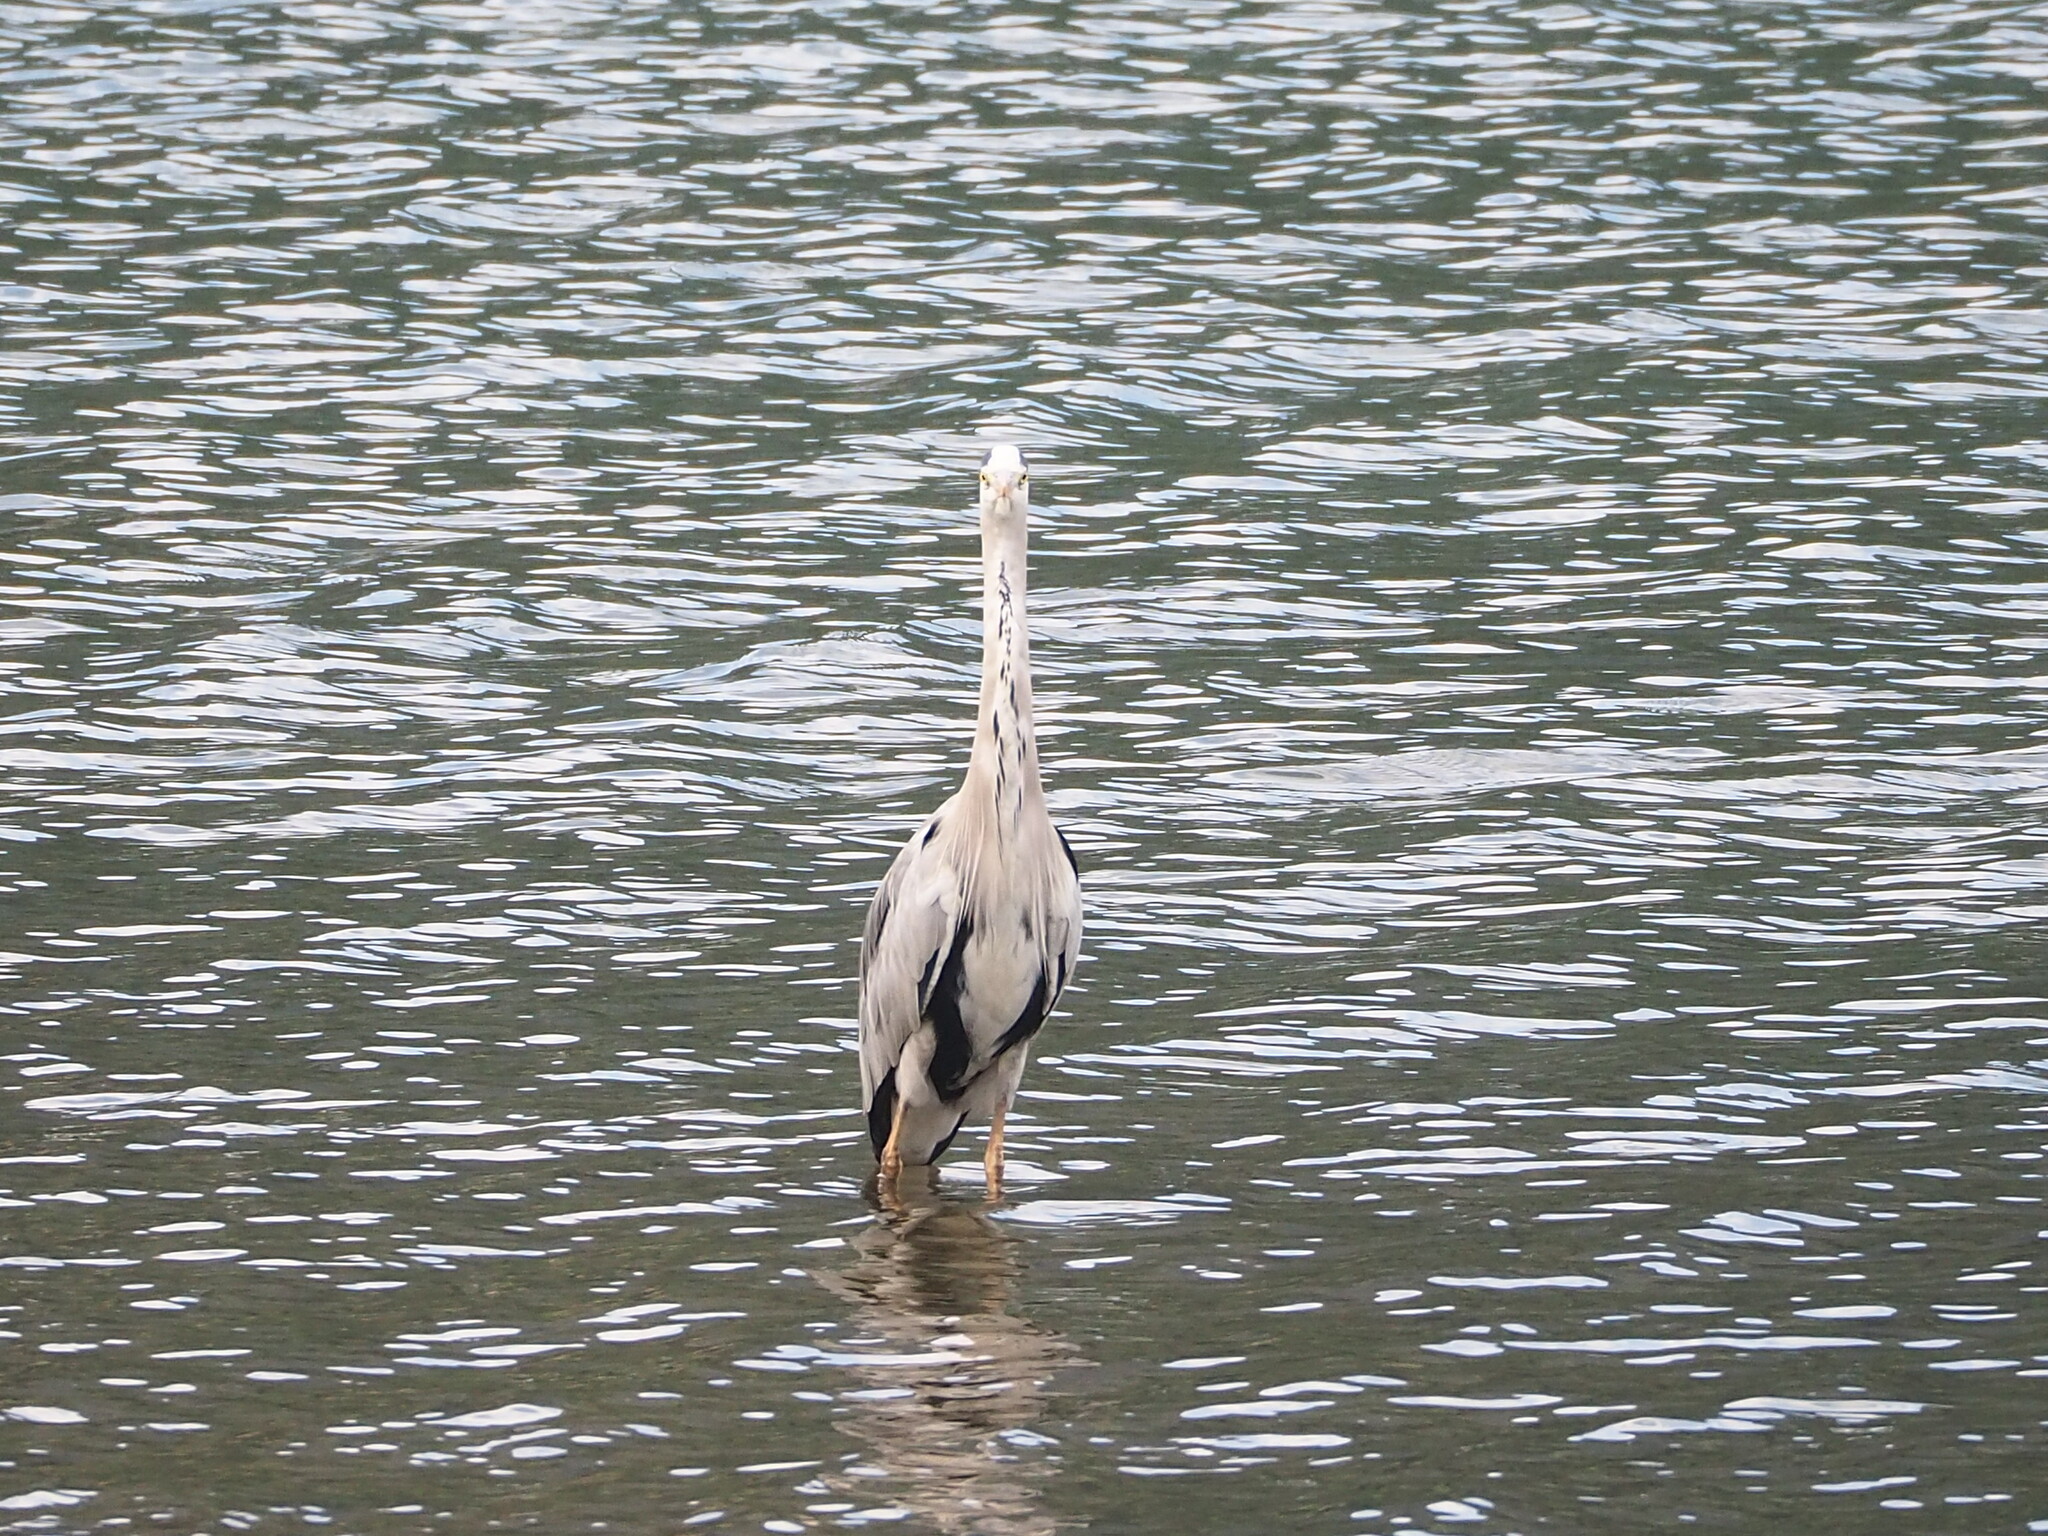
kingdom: Animalia
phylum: Chordata
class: Aves
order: Pelecaniformes
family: Ardeidae
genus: Ardea
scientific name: Ardea cinerea
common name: Grey heron
